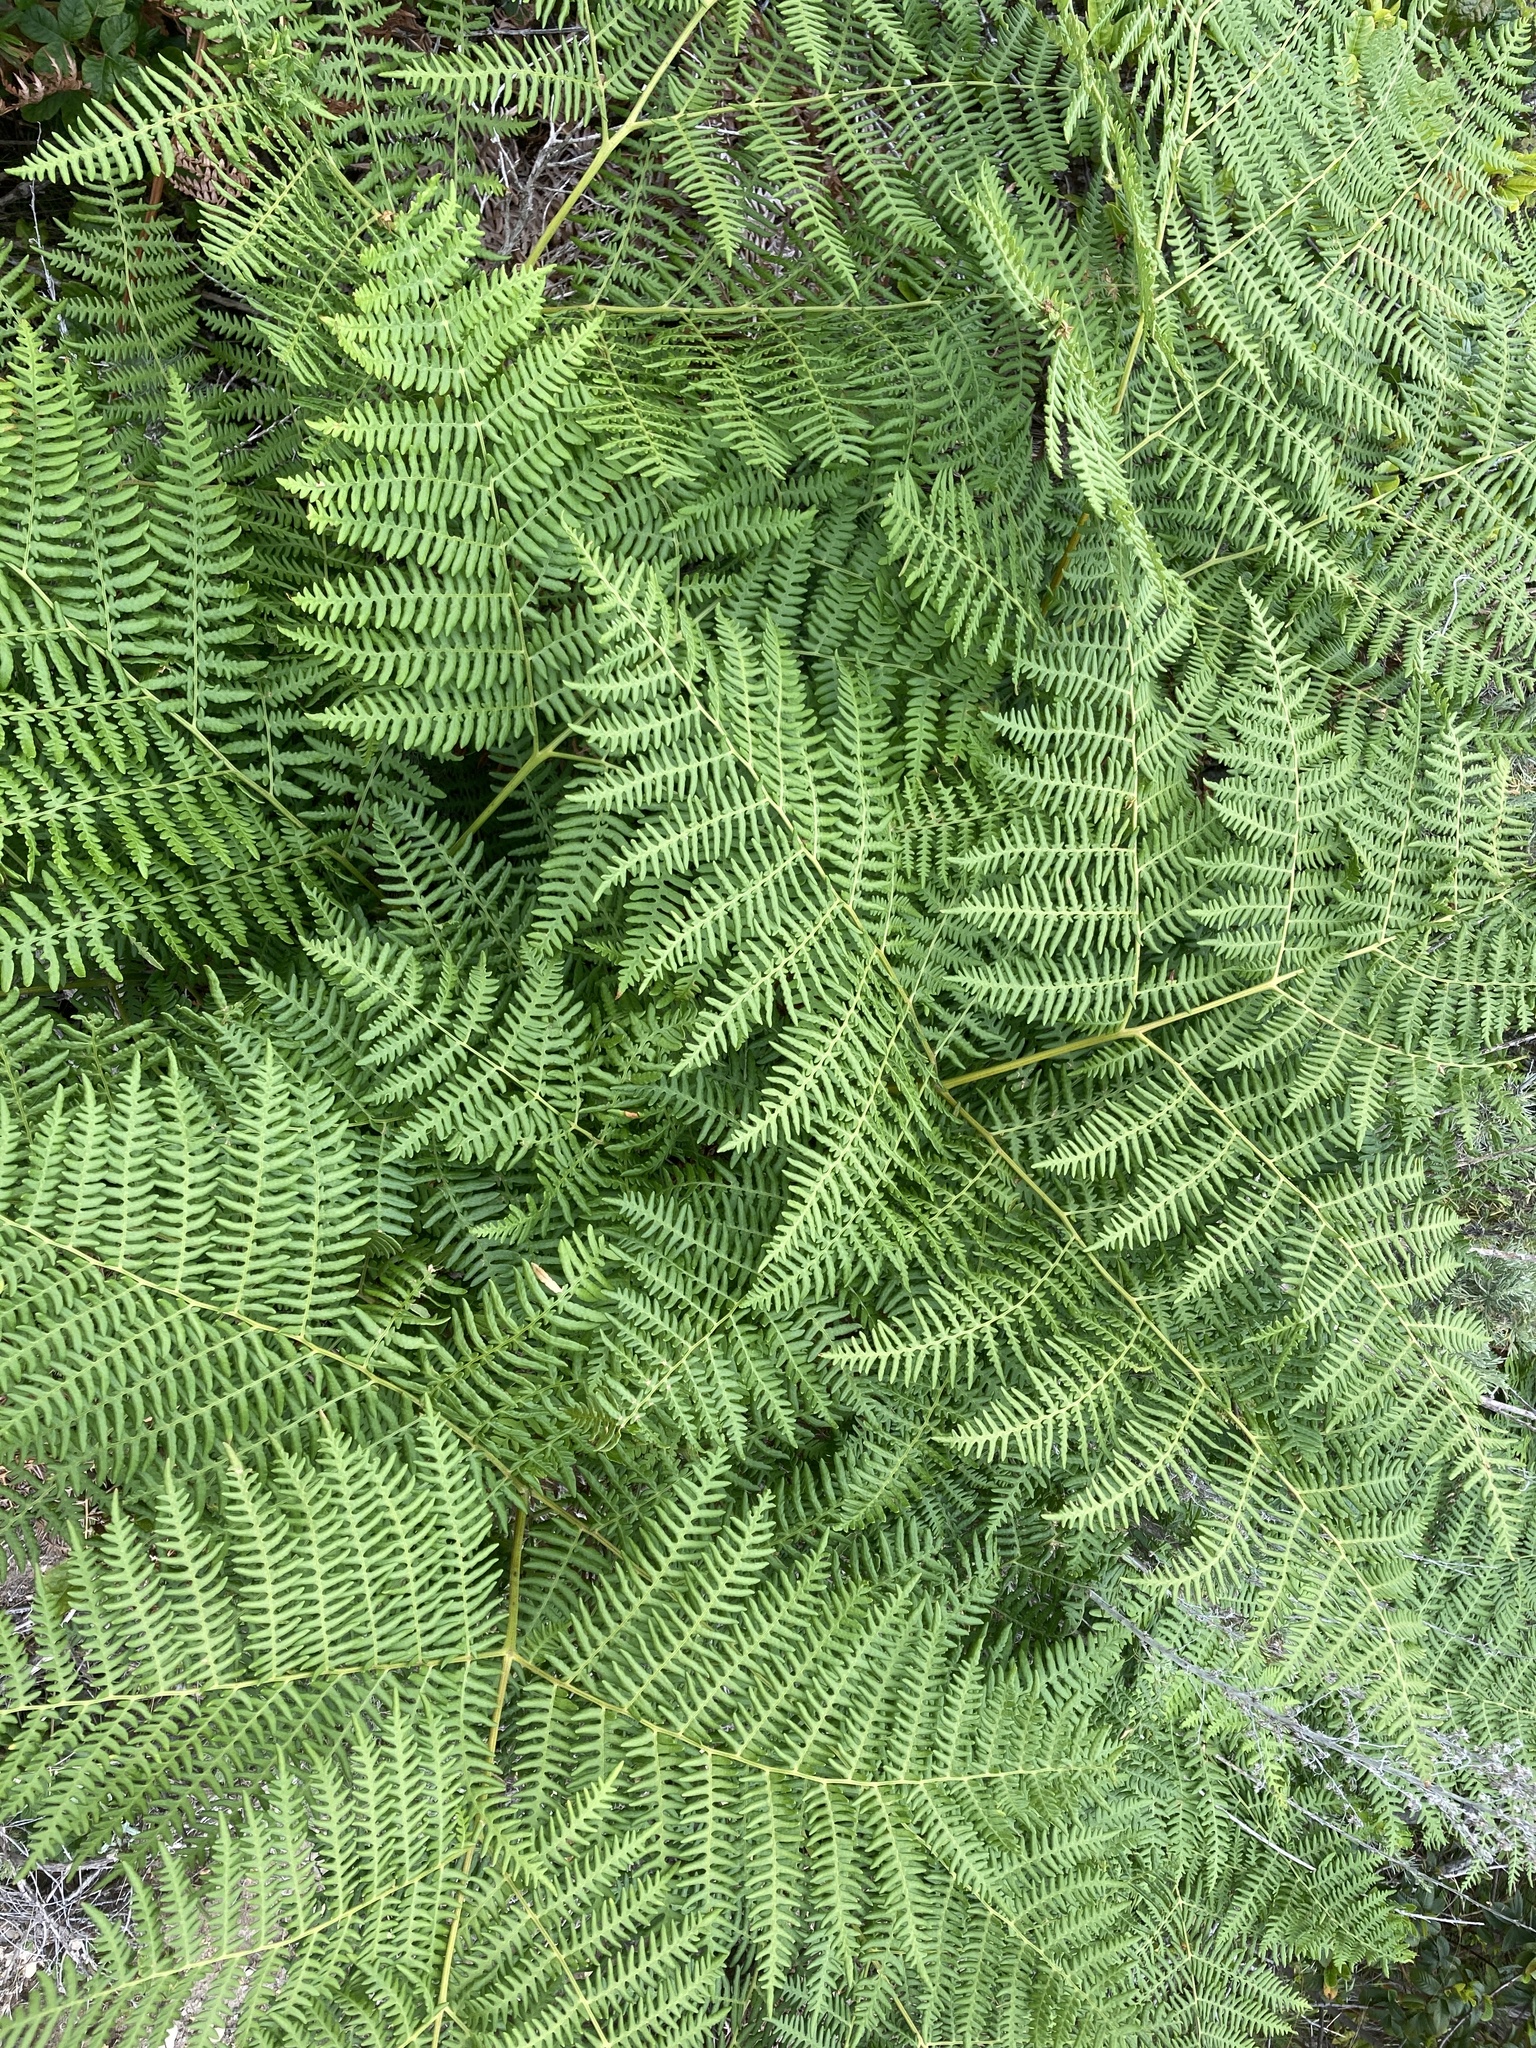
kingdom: Plantae
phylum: Tracheophyta
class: Polypodiopsida
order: Polypodiales
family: Dennstaedtiaceae
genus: Pteridium
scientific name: Pteridium aquilinum
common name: Bracken
